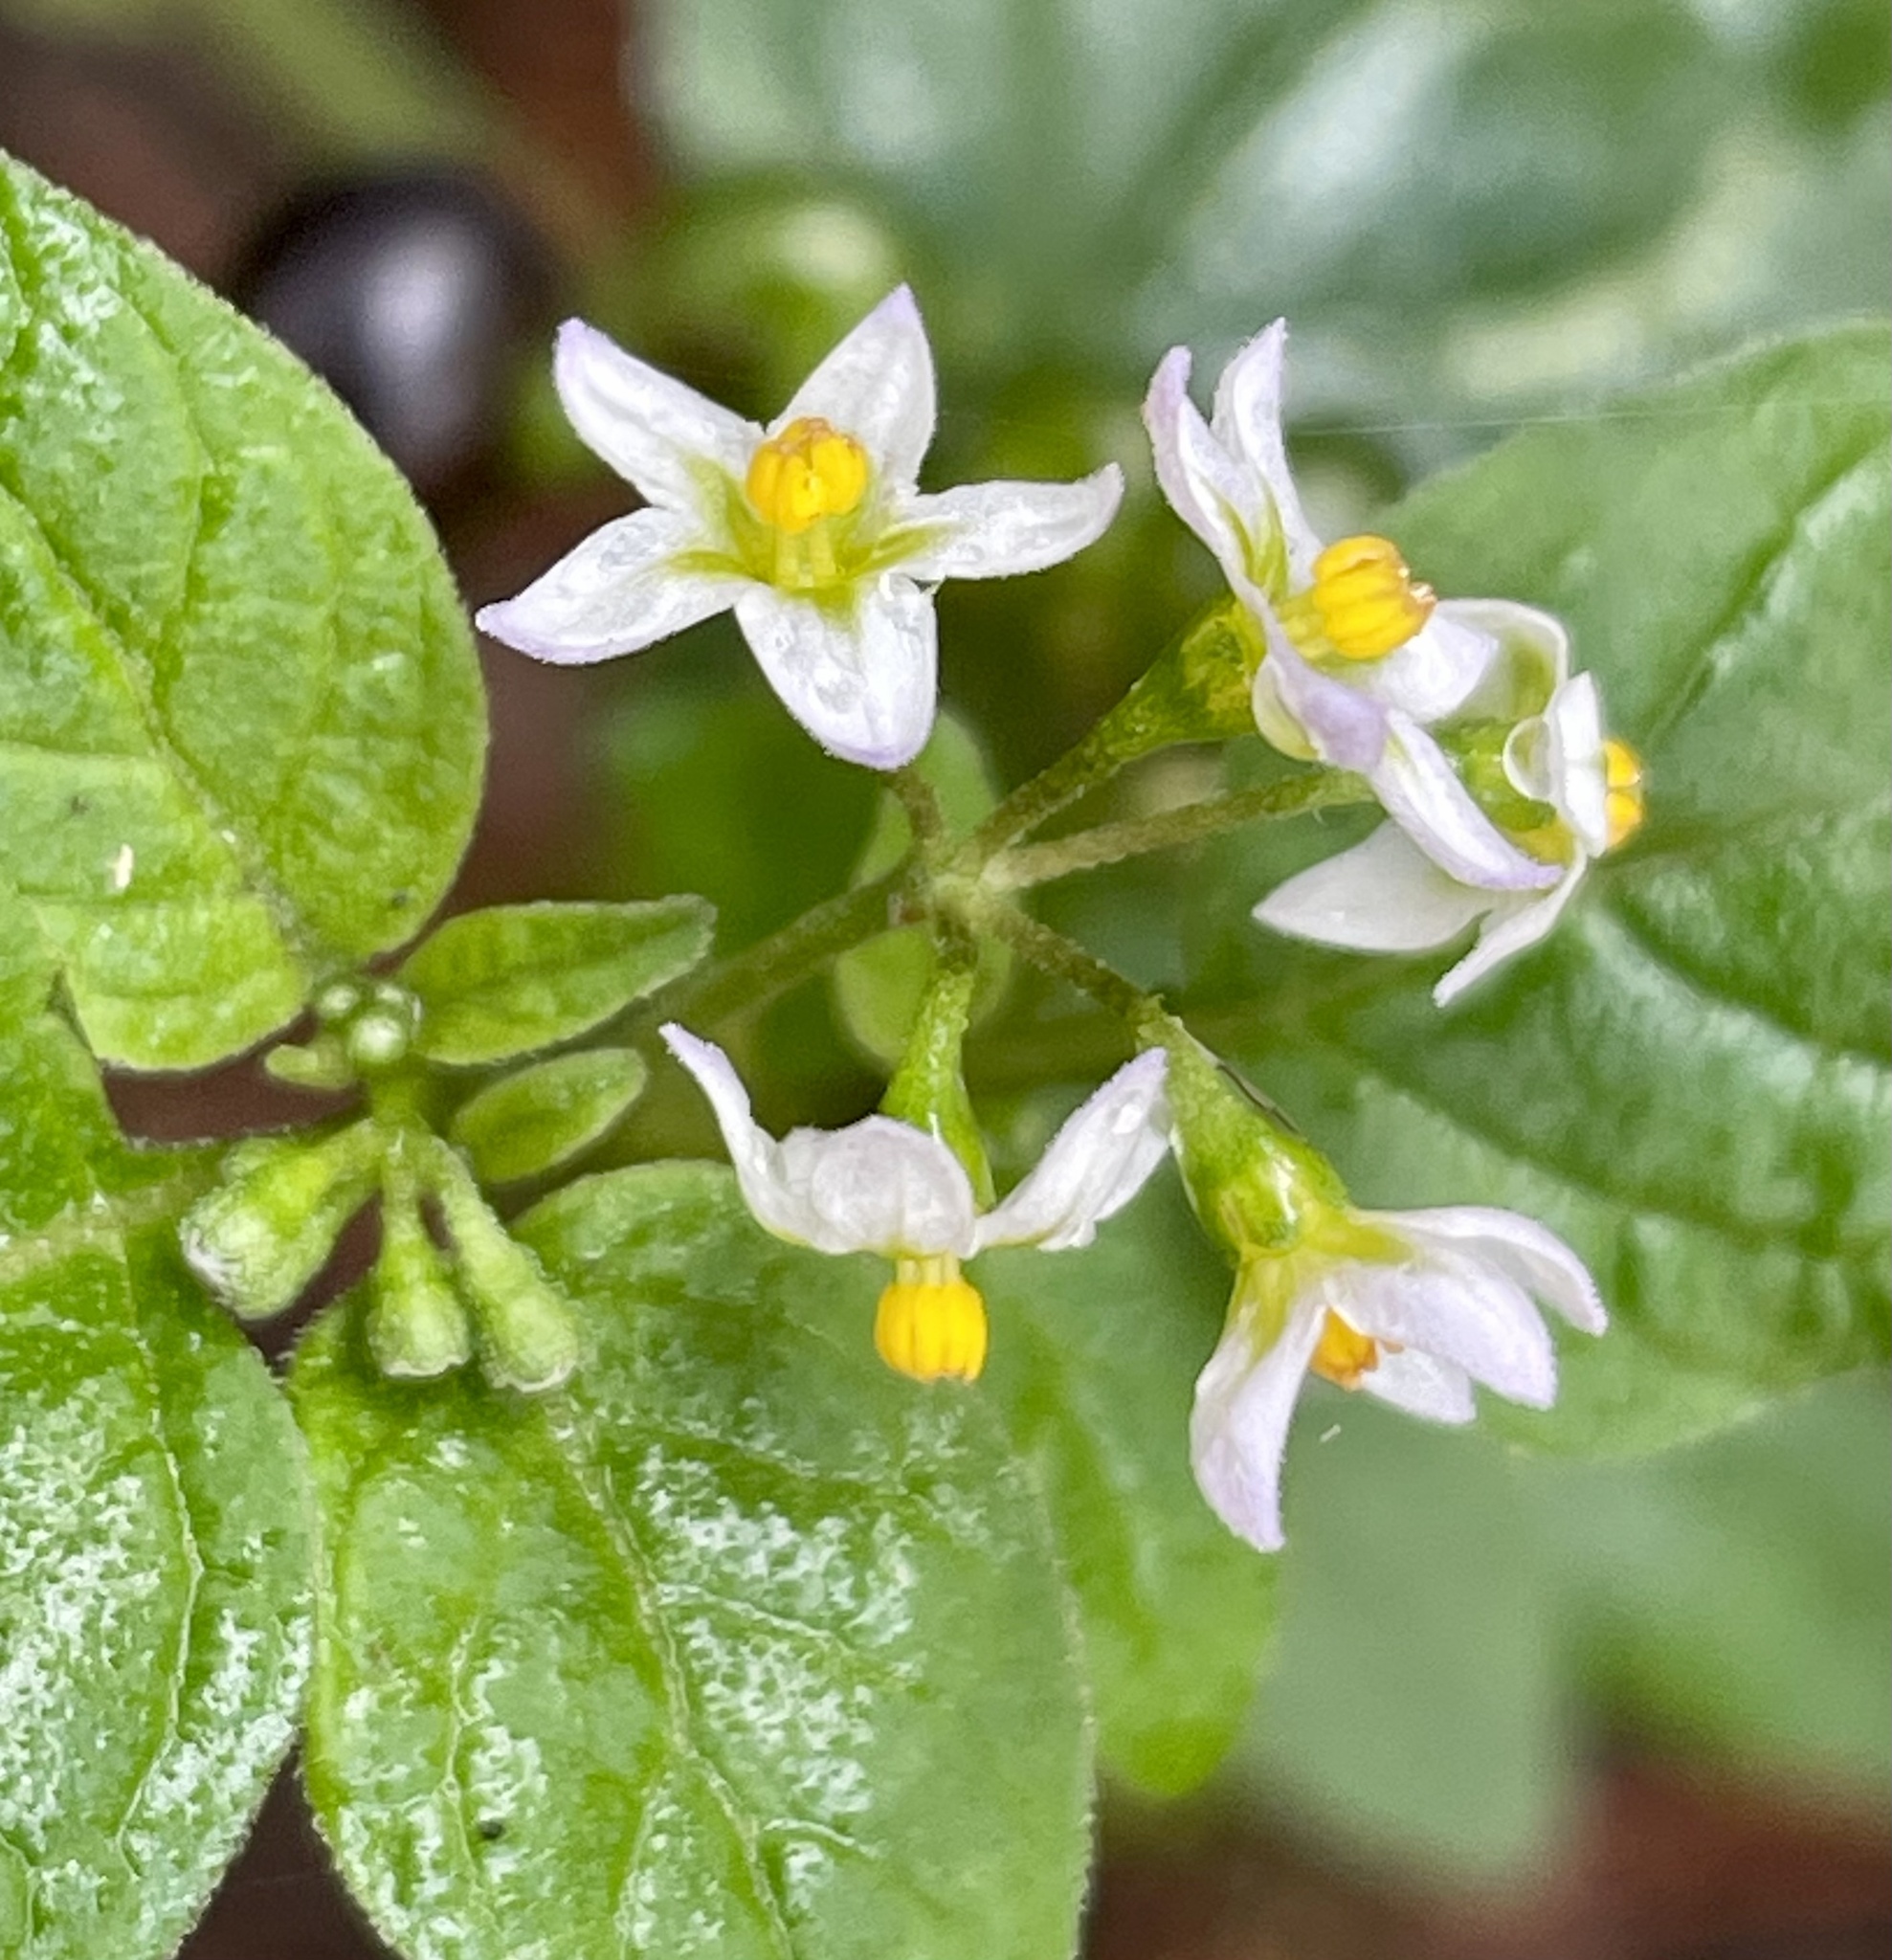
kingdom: Plantae
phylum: Tracheophyta
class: Magnoliopsida
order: Solanales
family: Solanaceae
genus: Solanum
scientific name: Solanum americanum
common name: American black nightshade
